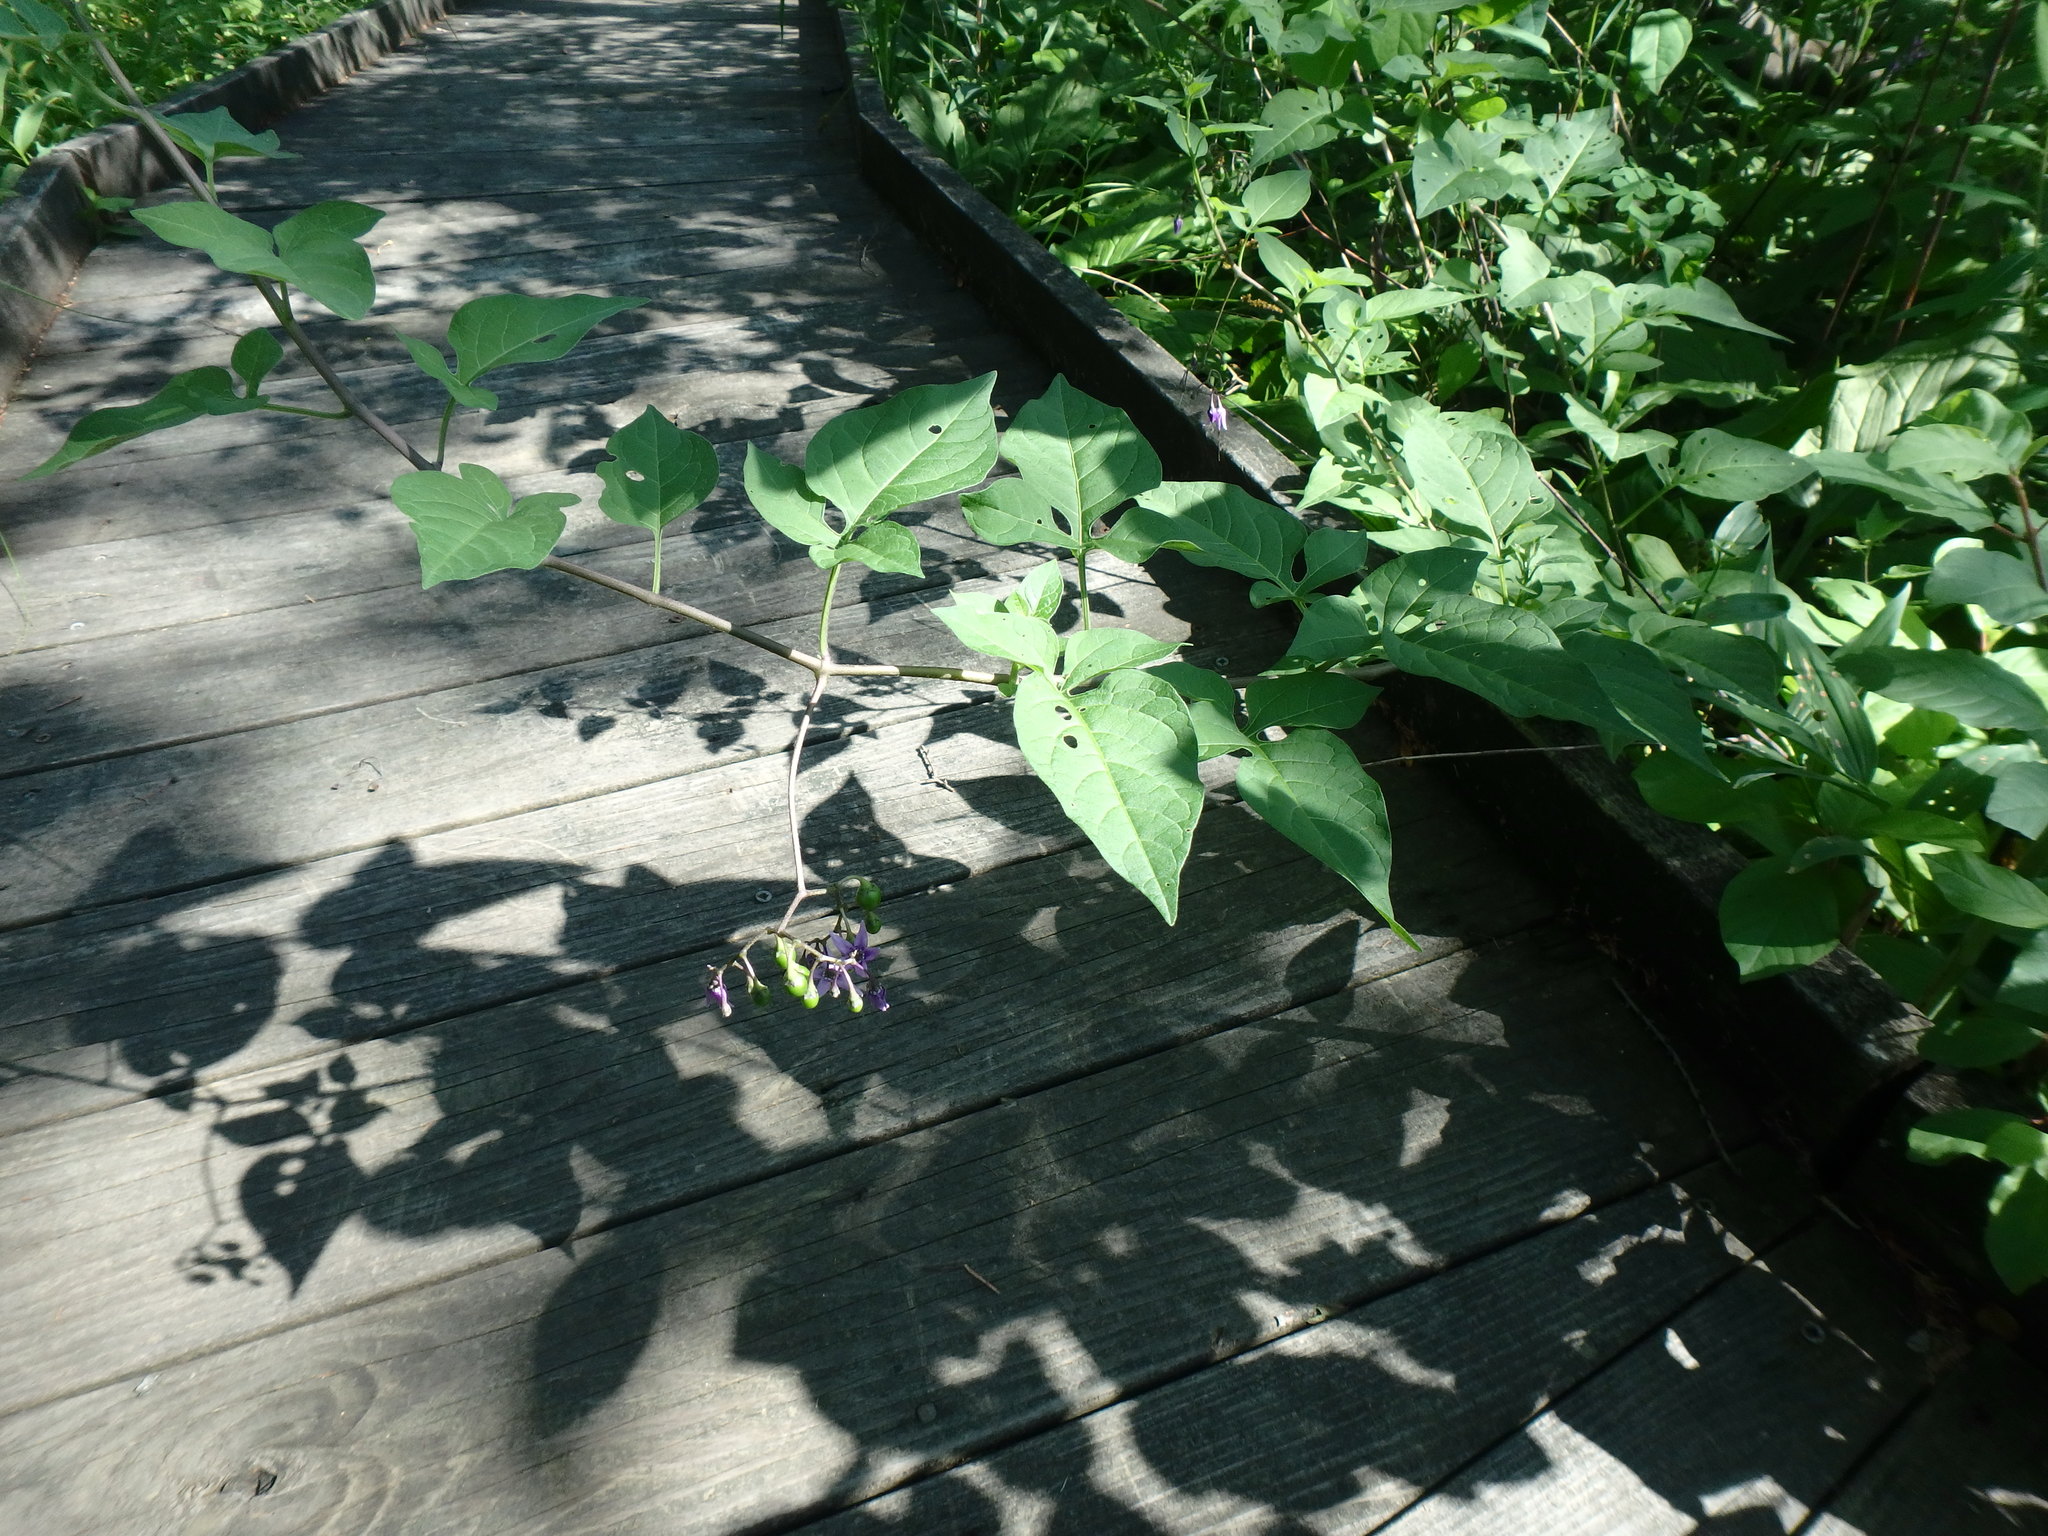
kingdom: Plantae
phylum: Tracheophyta
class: Magnoliopsida
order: Solanales
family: Solanaceae
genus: Solanum
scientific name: Solanum dulcamara
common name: Climbing nightshade
